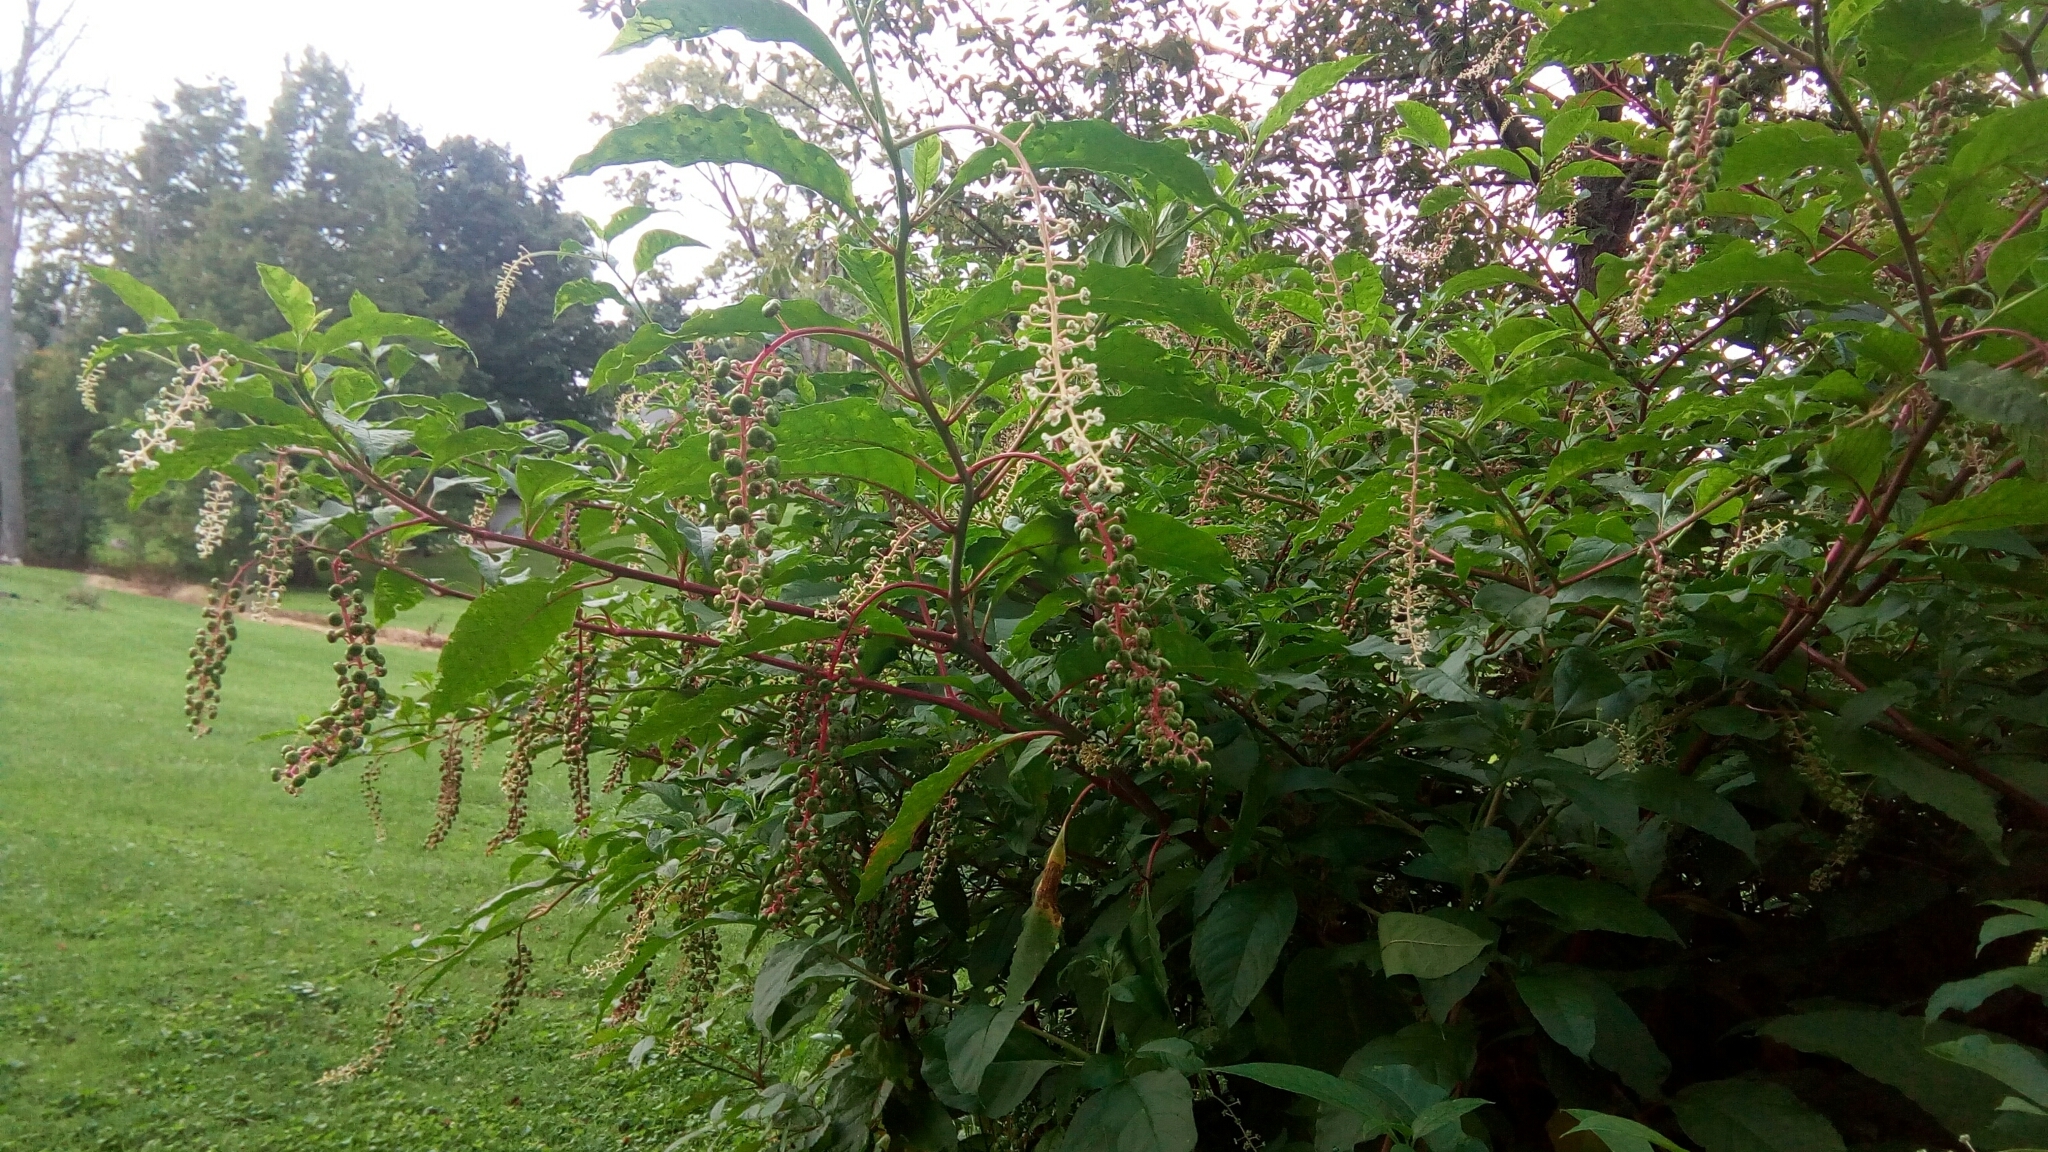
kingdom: Plantae
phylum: Tracheophyta
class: Magnoliopsida
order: Caryophyllales
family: Phytolaccaceae
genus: Phytolacca
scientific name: Phytolacca americana
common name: American pokeweed
